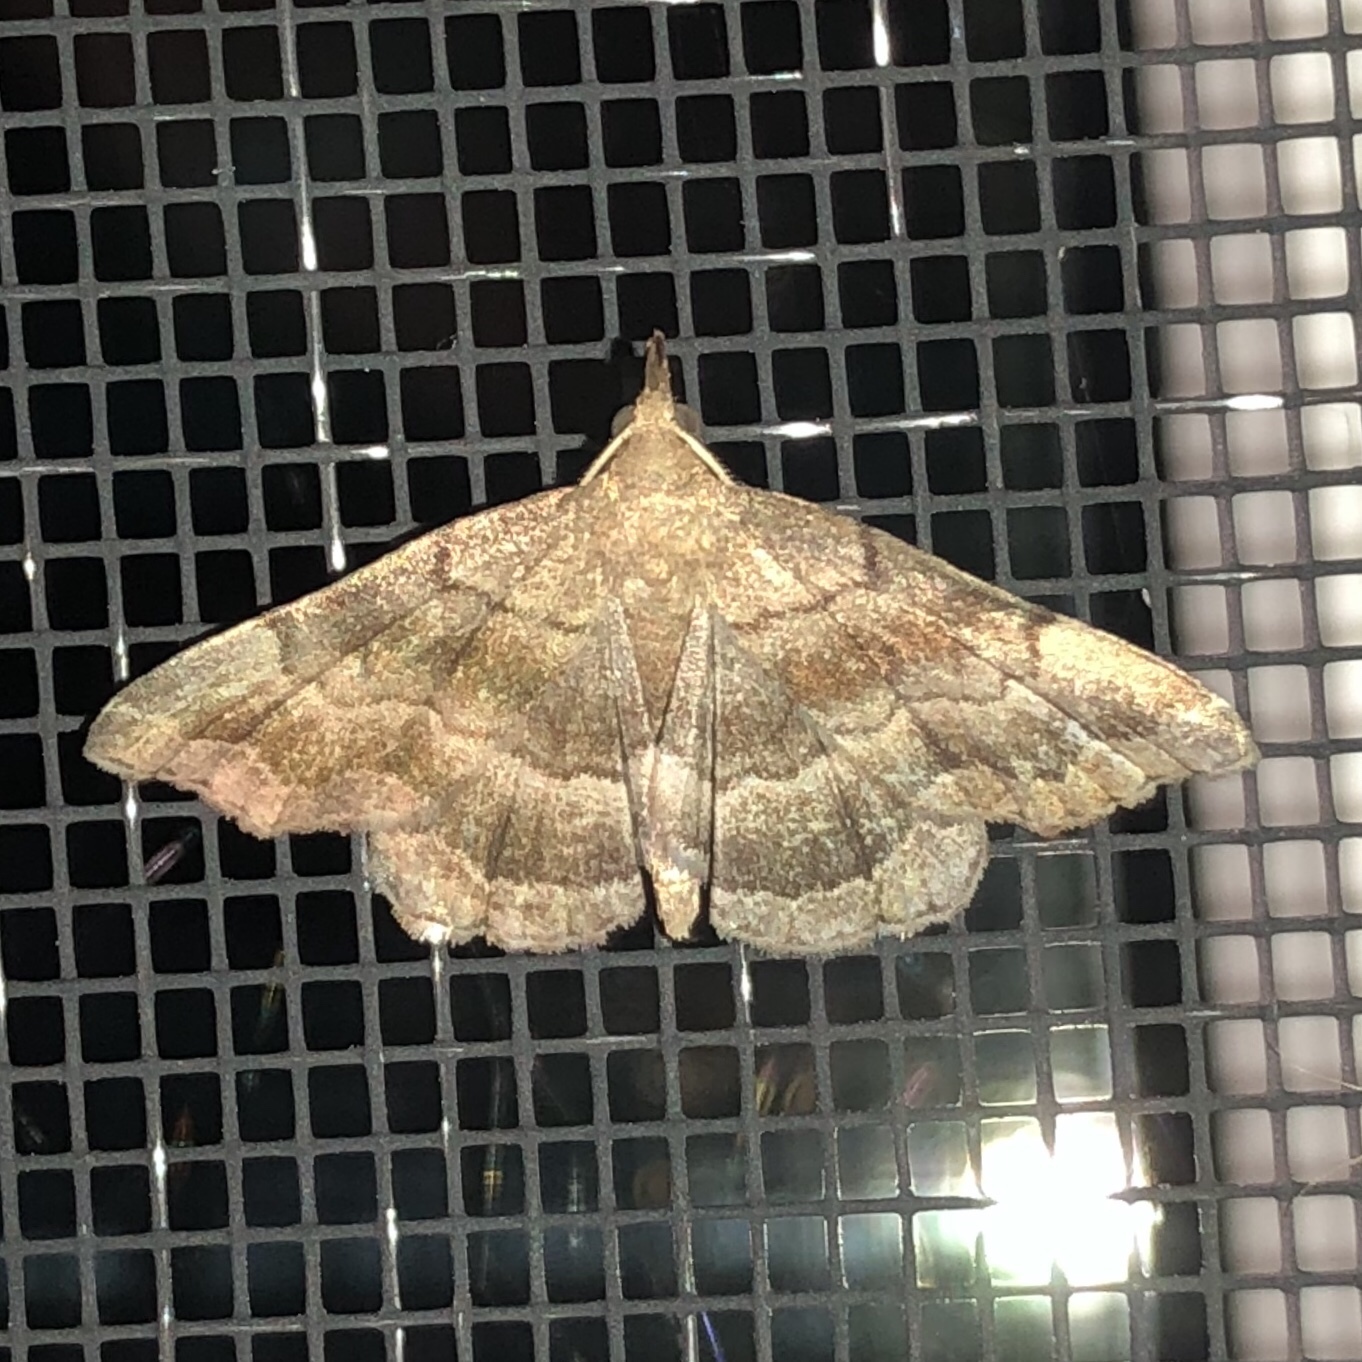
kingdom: Animalia
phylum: Arthropoda
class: Insecta
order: Lepidoptera
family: Erebidae
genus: Phalaenostola
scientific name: Phalaenostola larentioides
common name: Black-banded owlet
